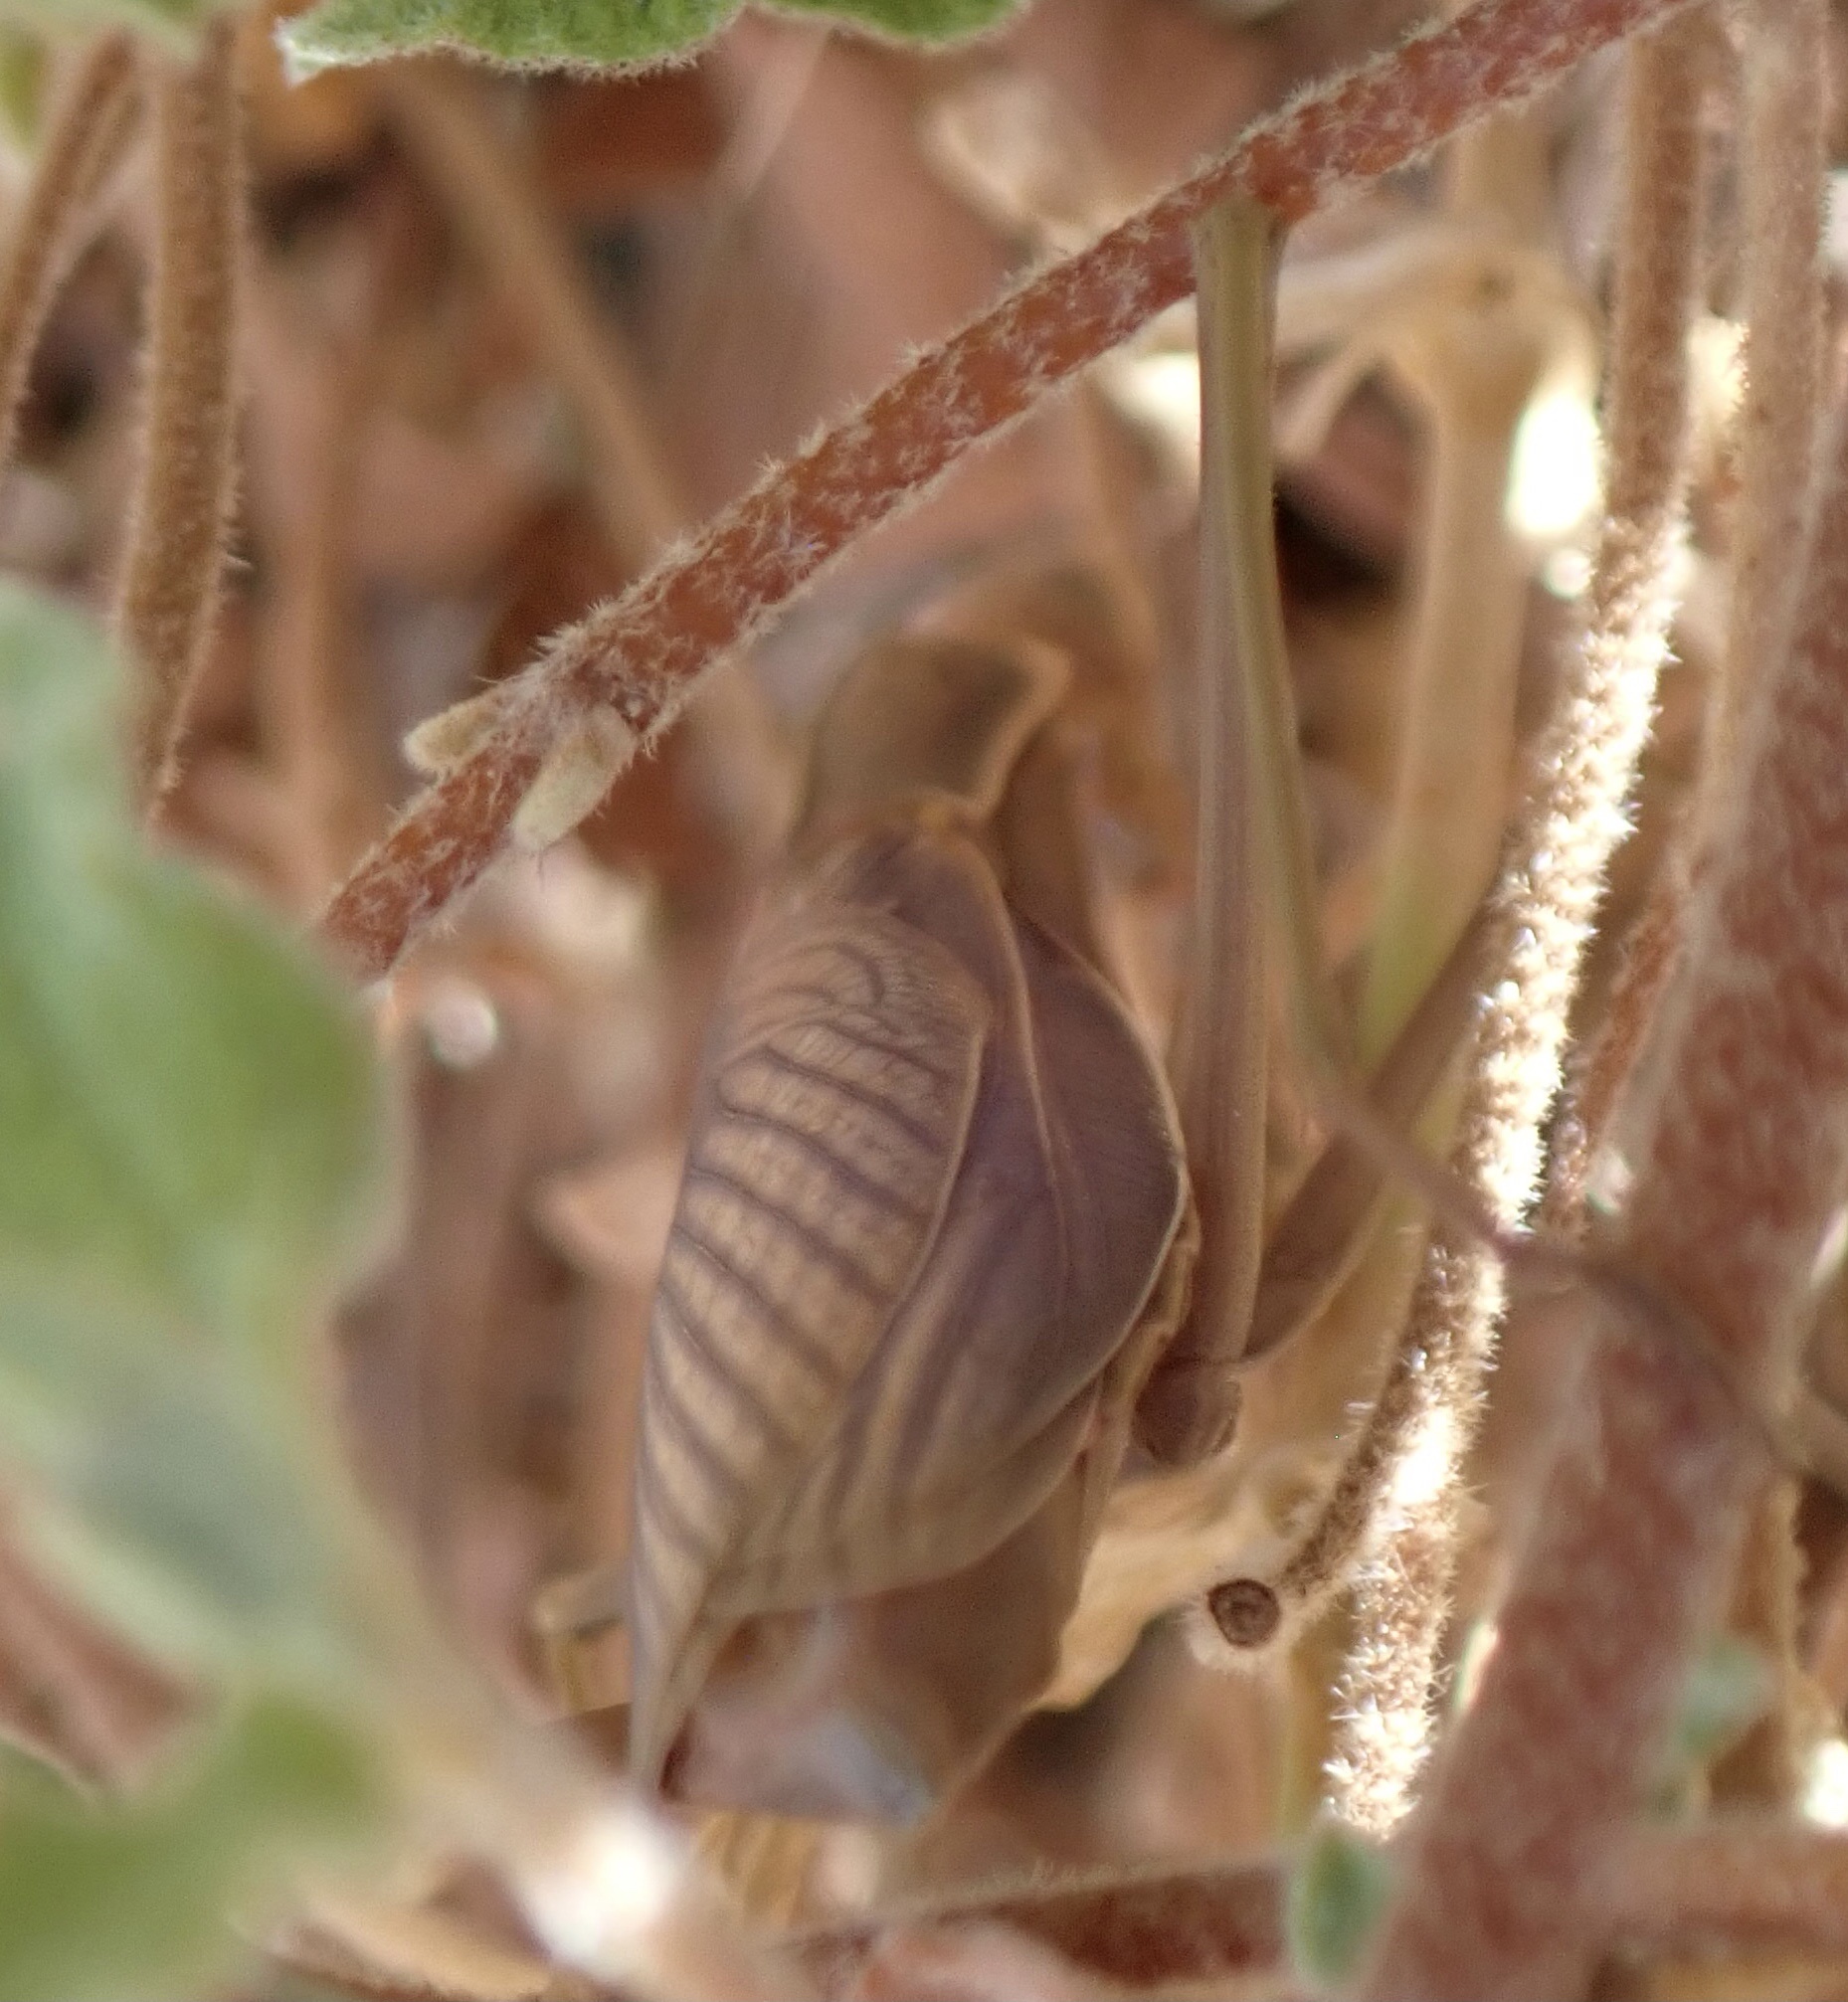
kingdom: Animalia
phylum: Arthropoda
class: Insecta
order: Mantodea
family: Mantidae
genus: Mantis
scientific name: Mantis religiosa
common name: Praying mantis
